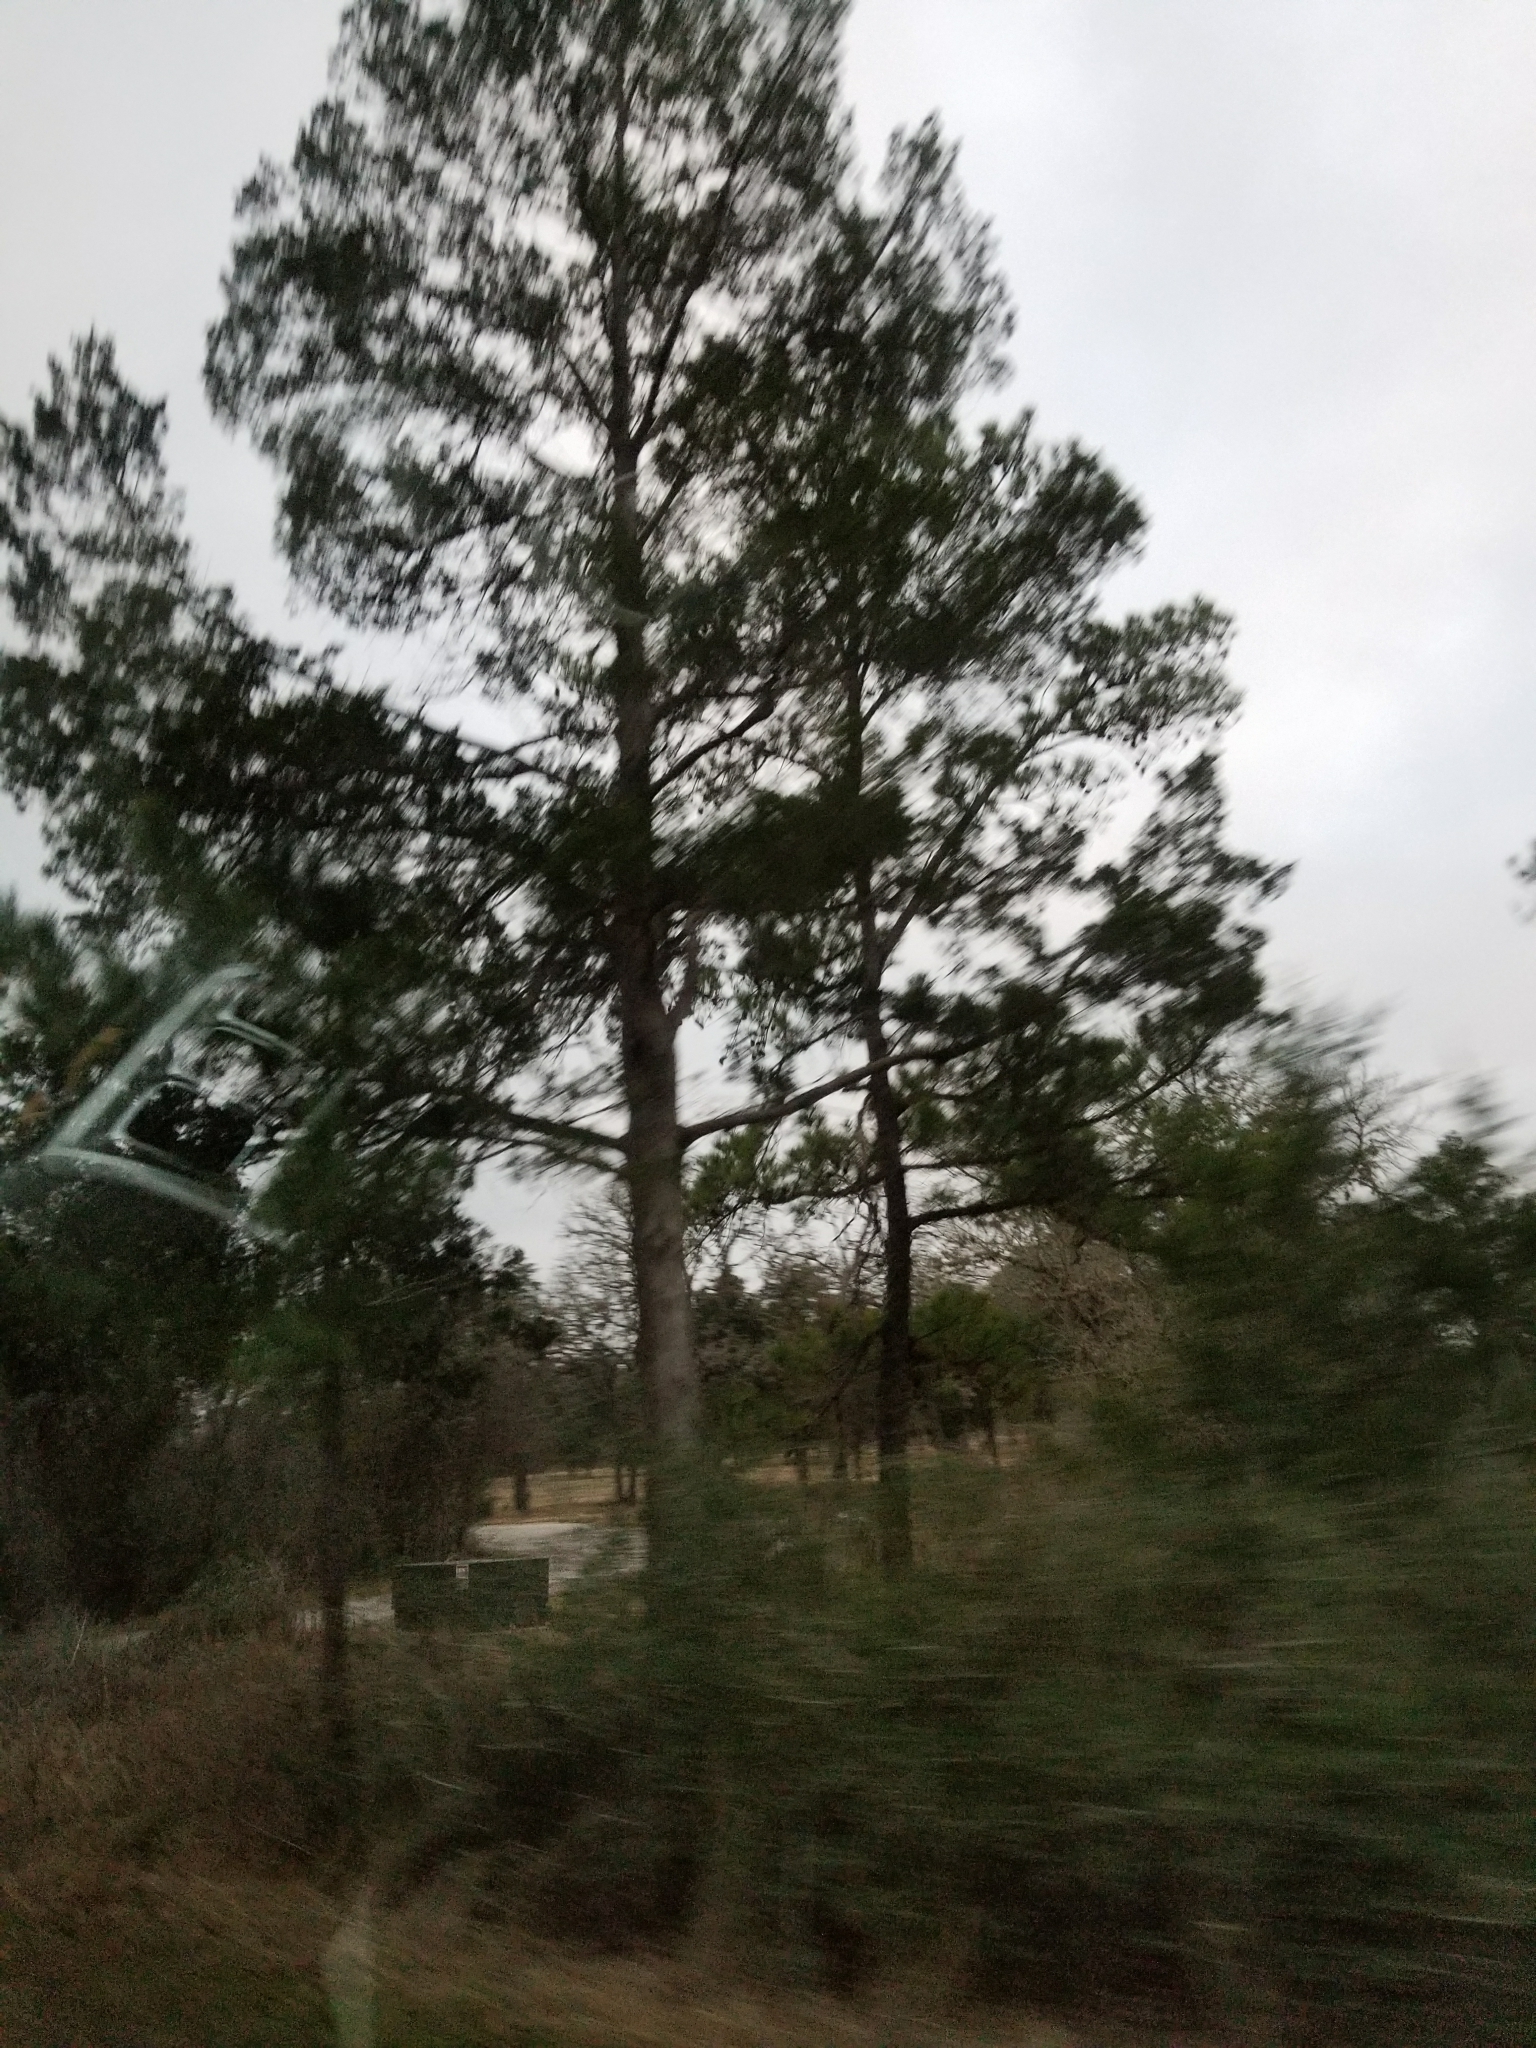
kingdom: Plantae
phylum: Tracheophyta
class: Pinopsida
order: Pinales
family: Pinaceae
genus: Pinus
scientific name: Pinus taeda
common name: Loblolly pine
